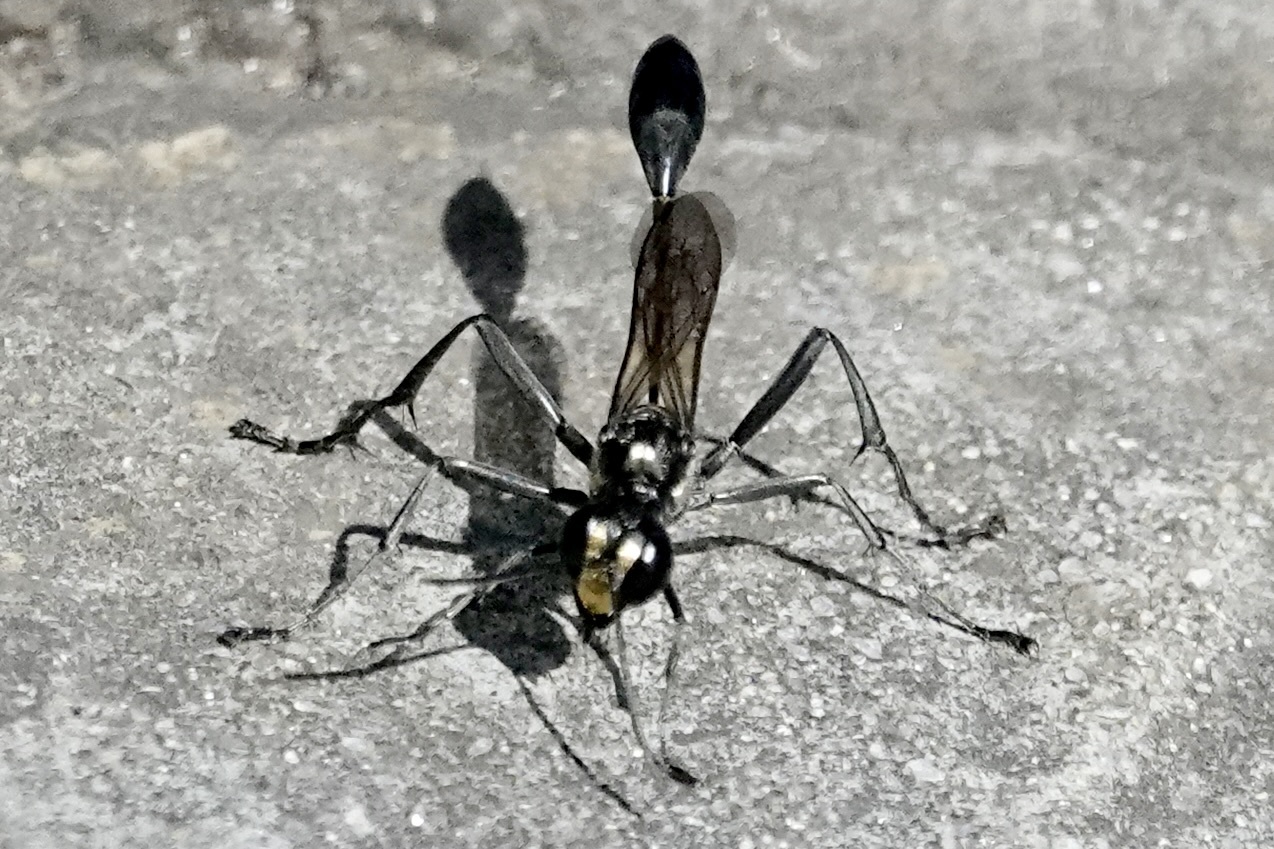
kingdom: Animalia
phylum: Arthropoda
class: Insecta
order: Hymenoptera
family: Sphecidae
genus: Eremnophila
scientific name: Eremnophila aureonotata
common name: Gold-marked thread-waisted wasp
